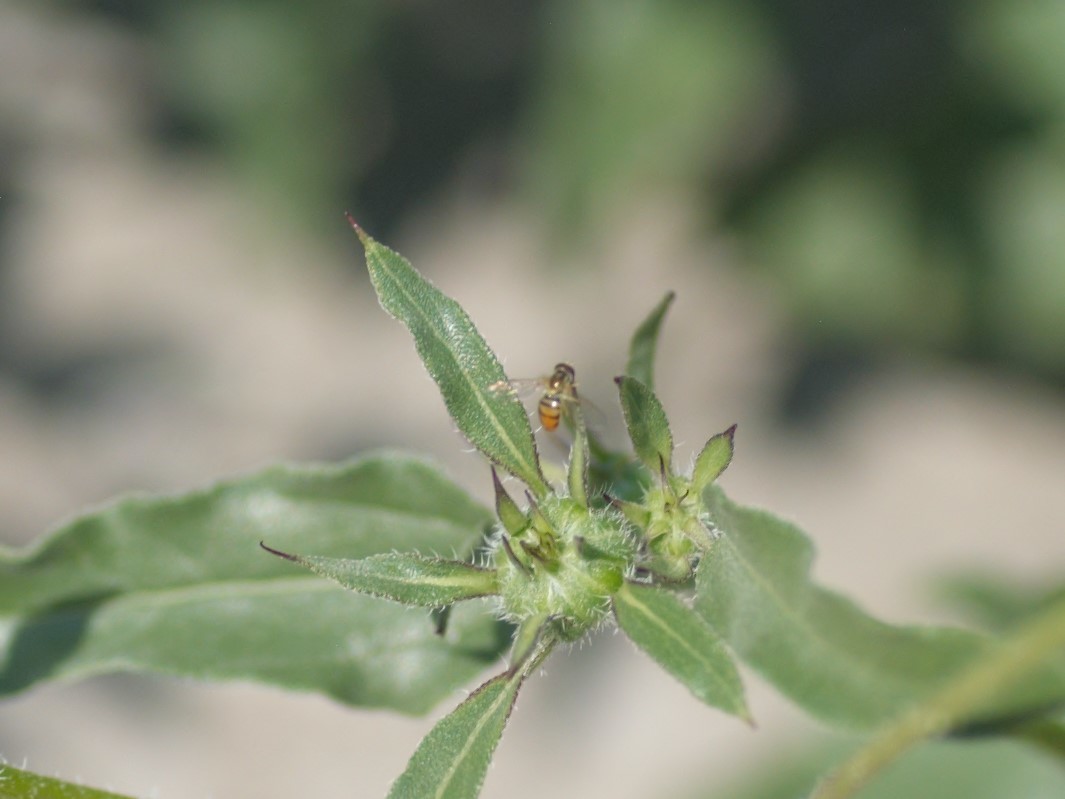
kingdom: Animalia
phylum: Arthropoda
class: Insecta
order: Diptera
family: Syrphidae
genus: Toxomerus
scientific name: Toxomerus marginatus
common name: Syrphid fly
